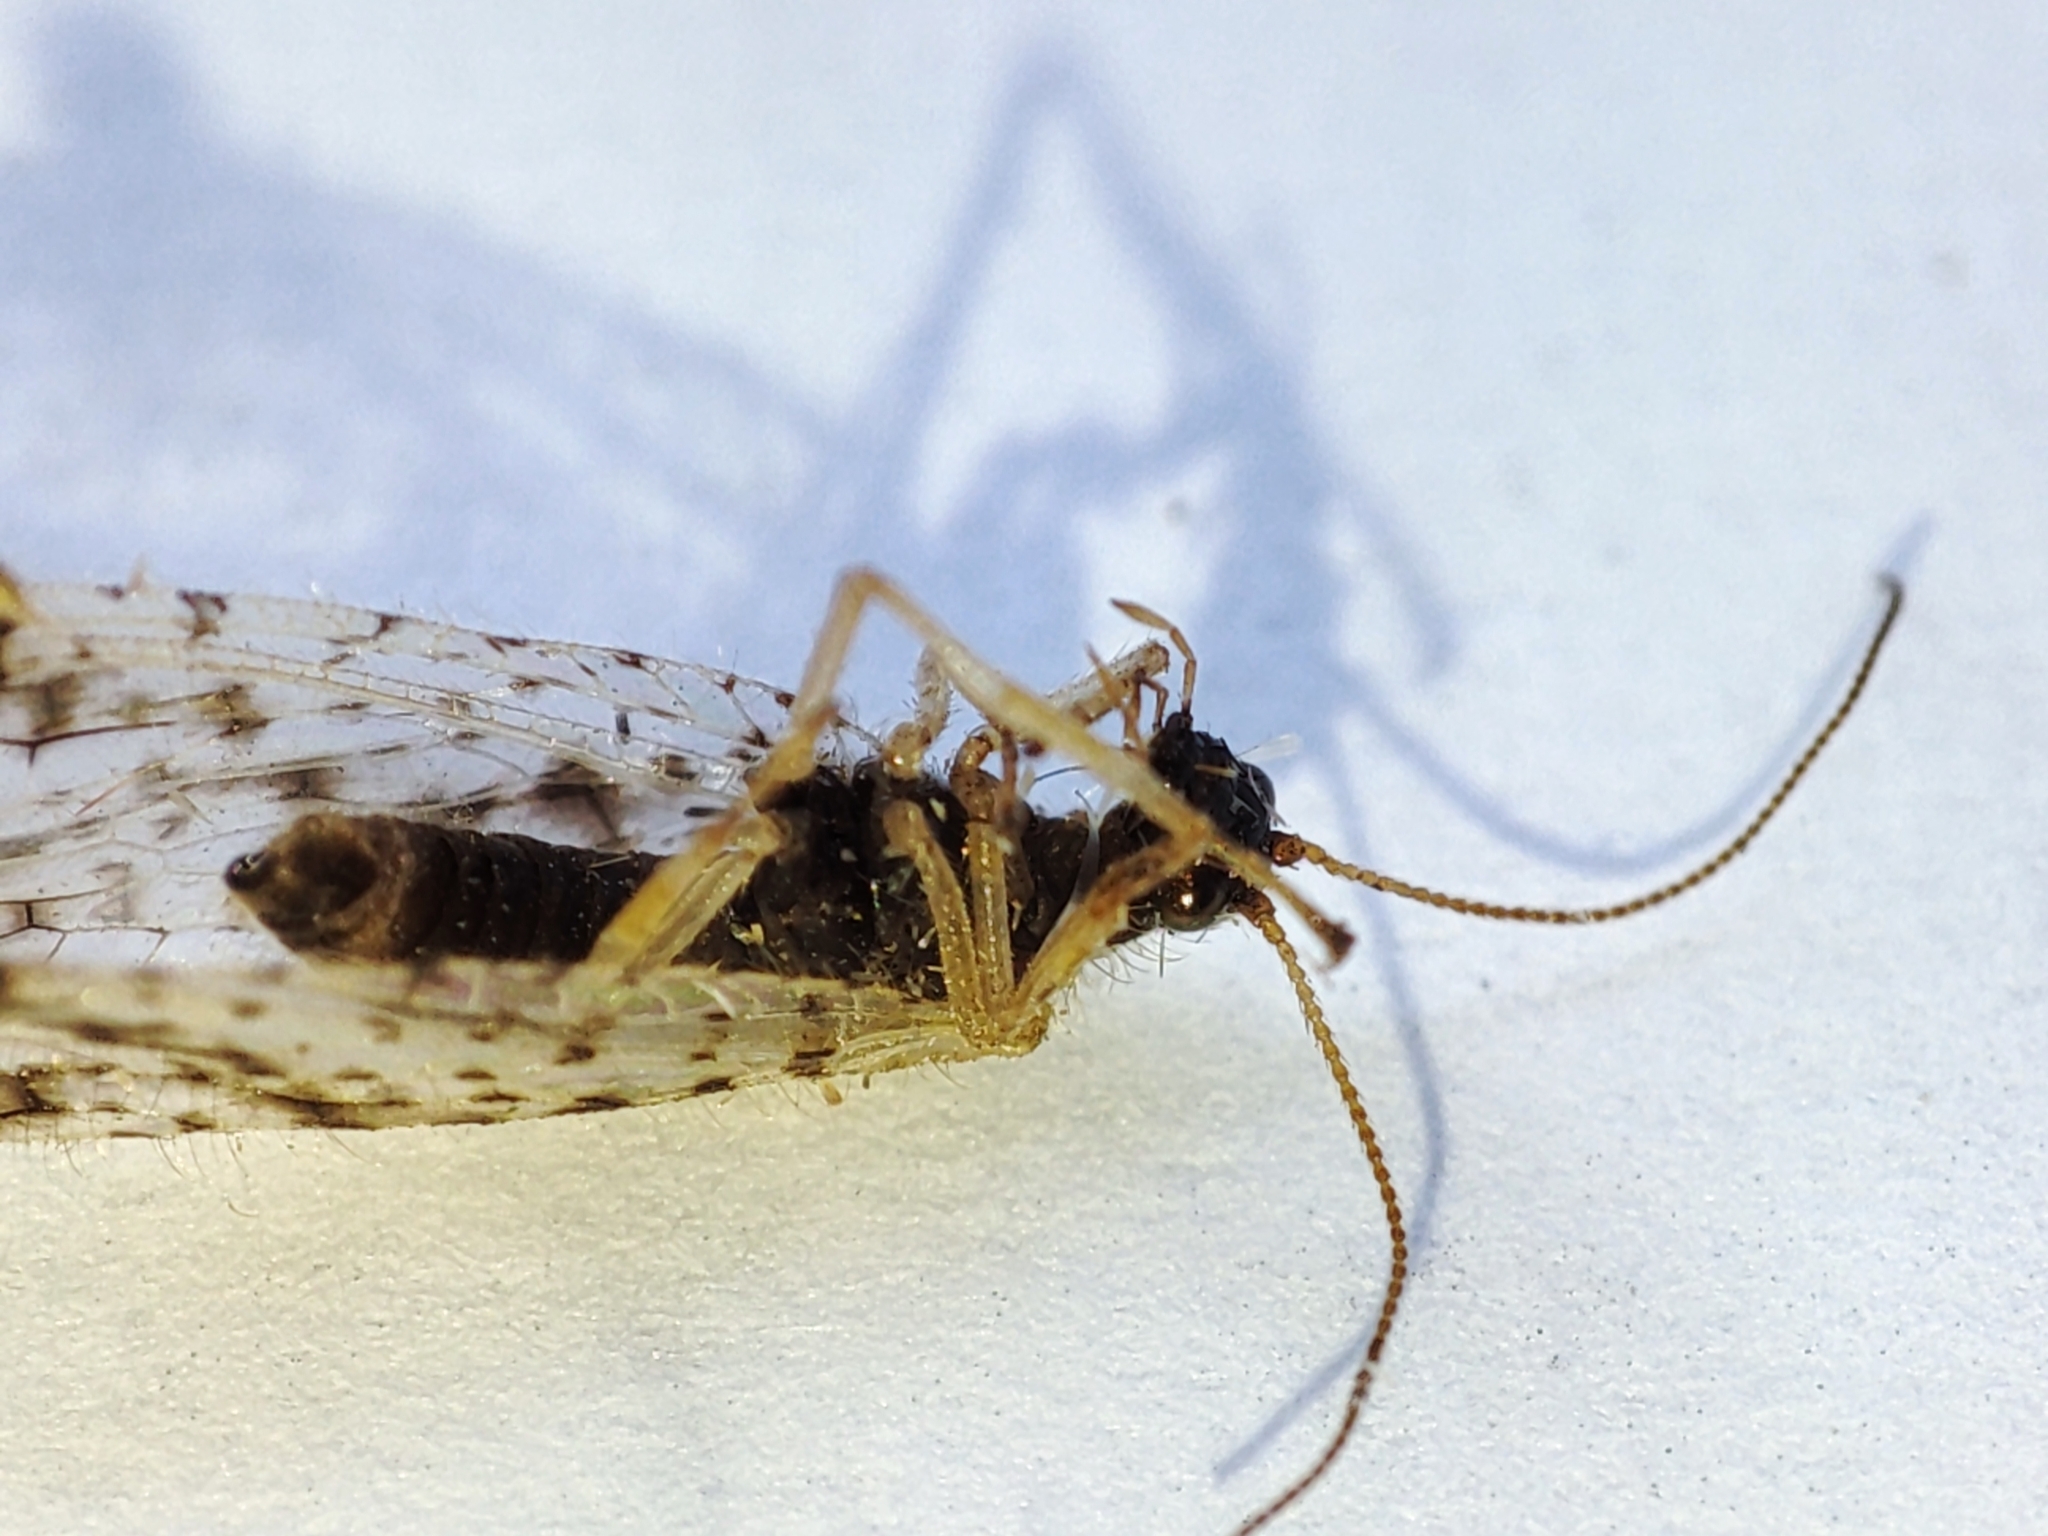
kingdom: Animalia
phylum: Arthropoda
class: Insecta
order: Neuroptera
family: Hemerobiidae
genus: Micromus
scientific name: Micromus variegatus
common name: Brown lacewing
